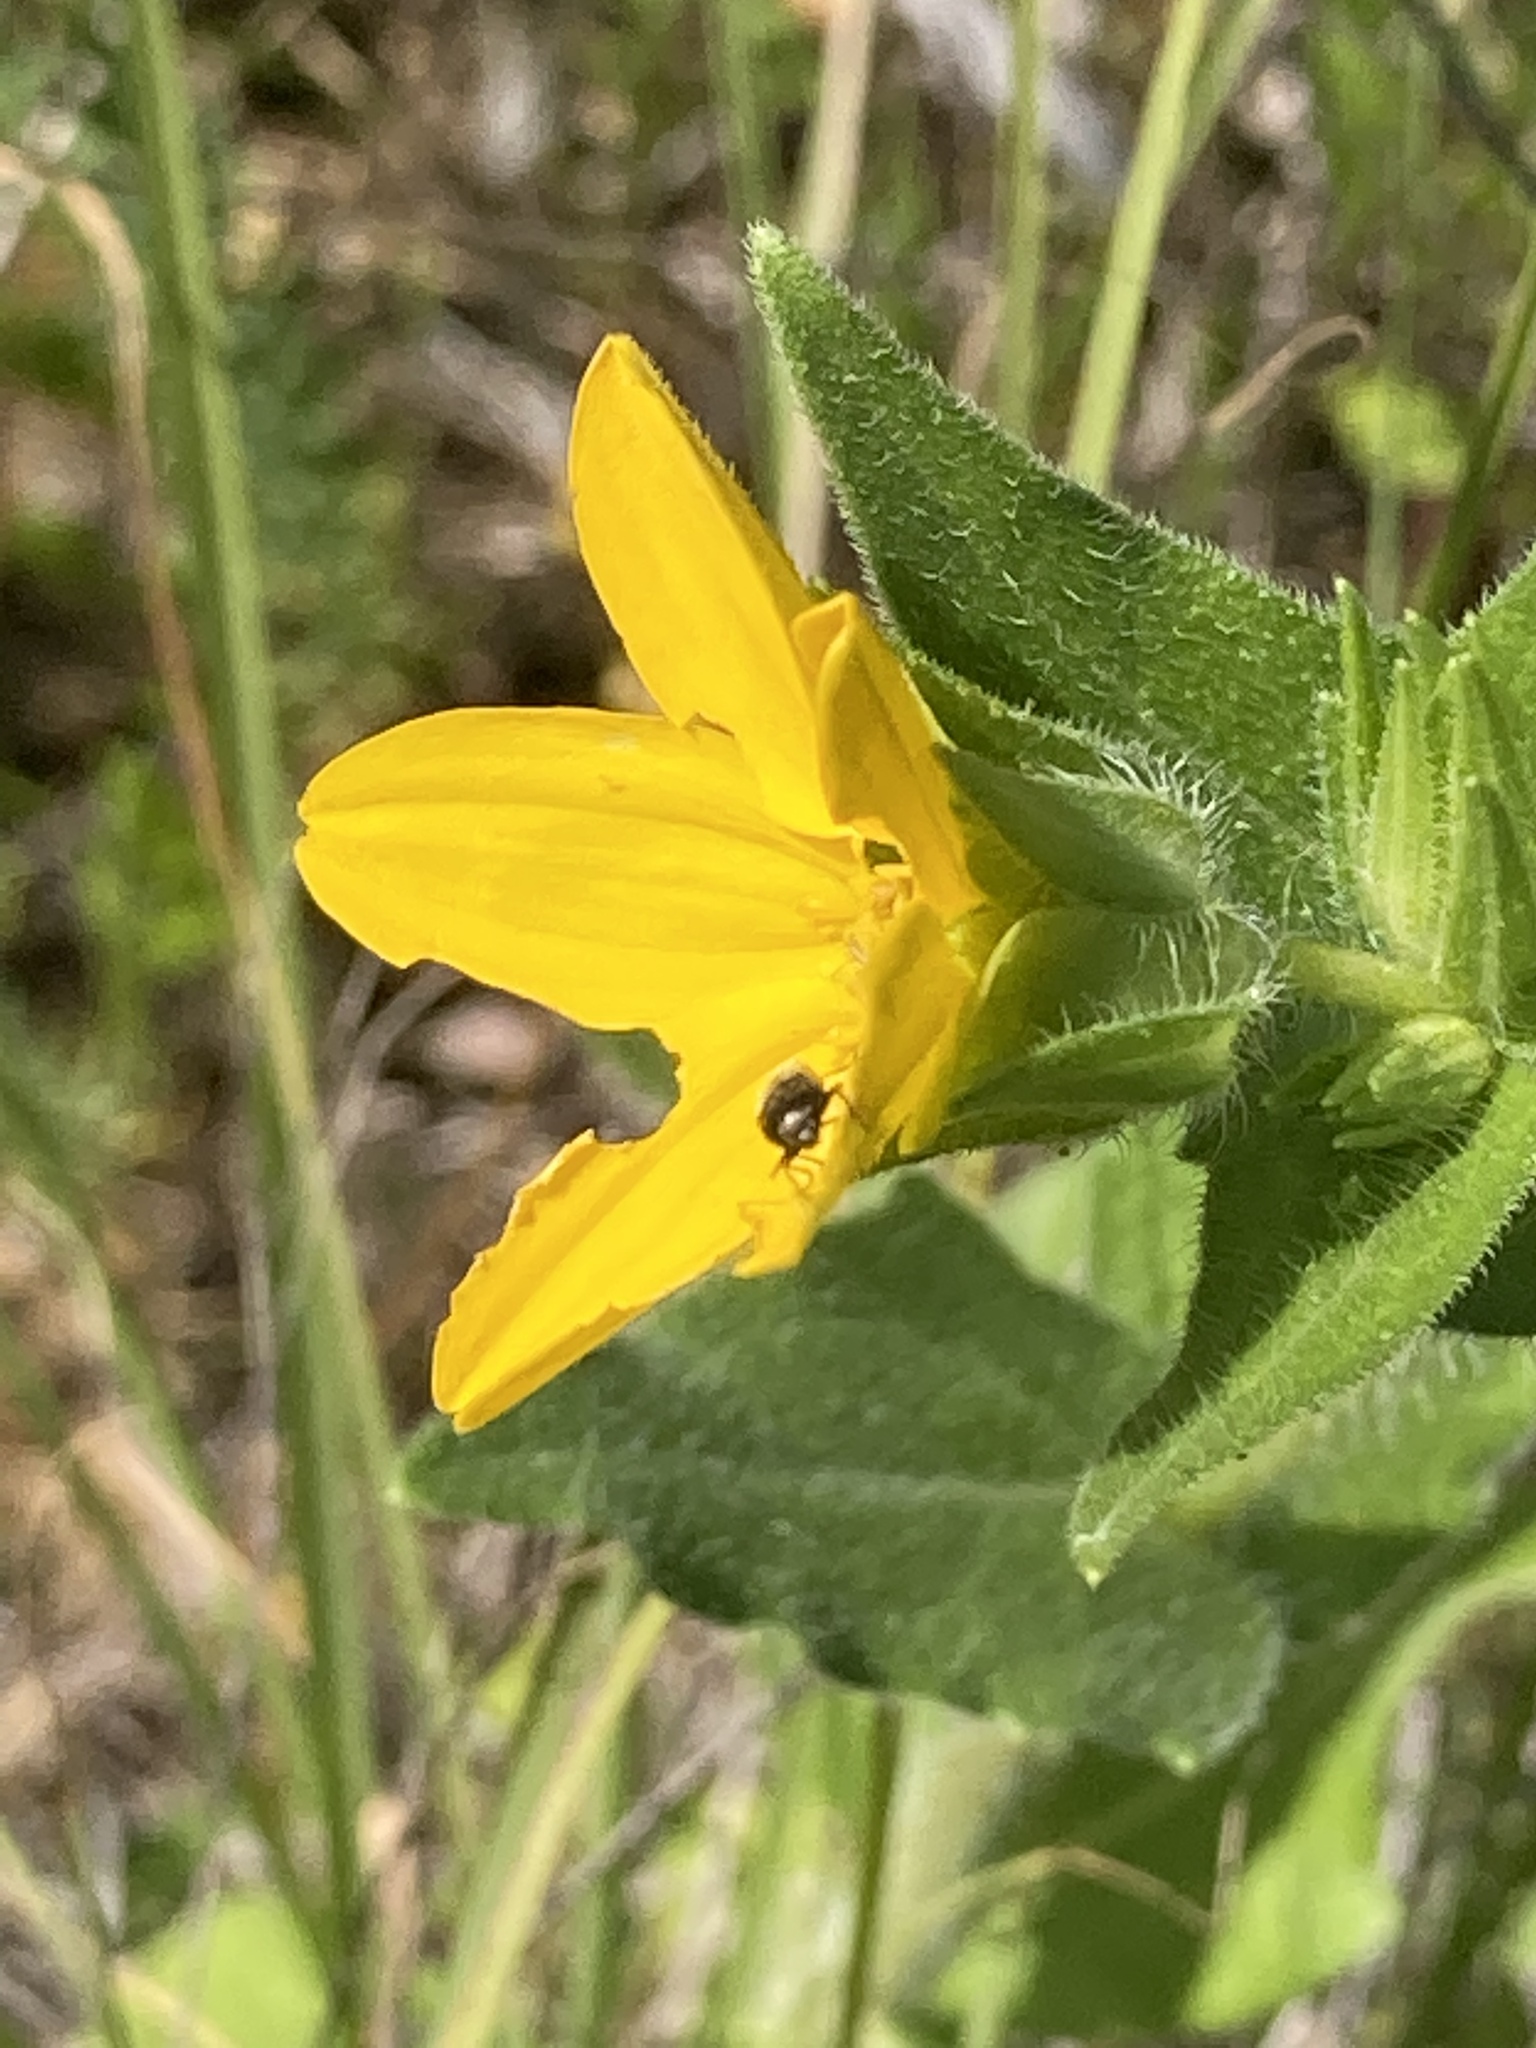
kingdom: Animalia
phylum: Arthropoda
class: Insecta
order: Coleoptera
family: Buprestidae
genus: Acmaeodera
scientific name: Acmaeodera neglecta
